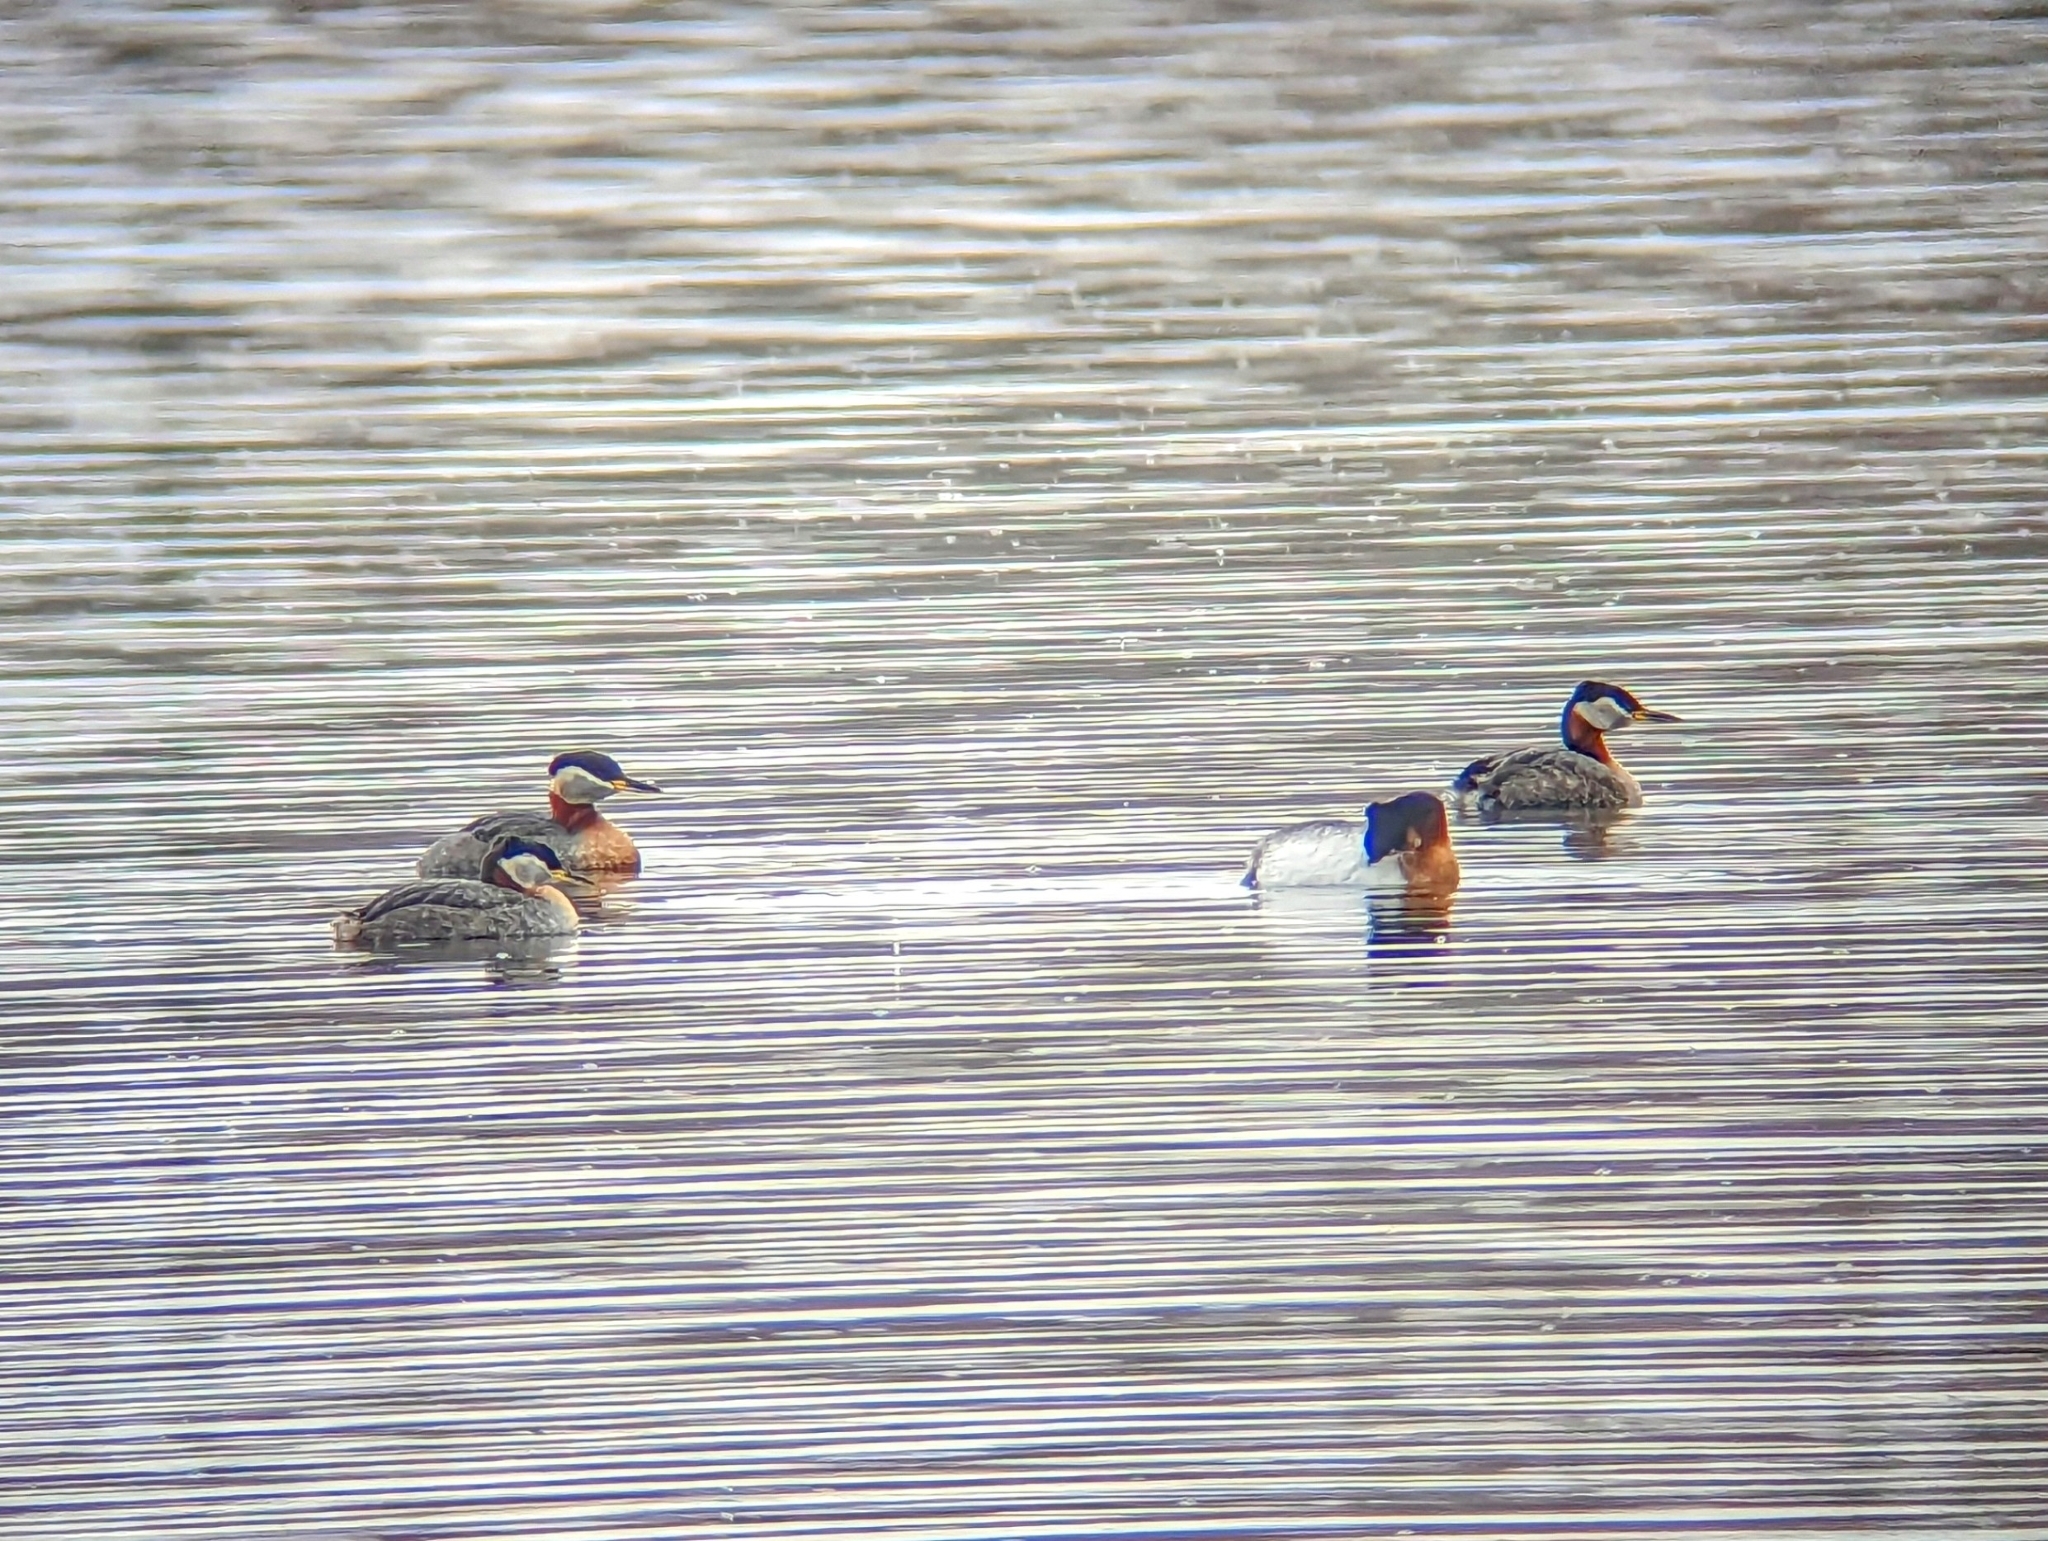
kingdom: Animalia
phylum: Chordata
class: Aves
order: Podicipediformes
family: Podicipedidae
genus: Podiceps
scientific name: Podiceps grisegena
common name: Red-necked grebe
